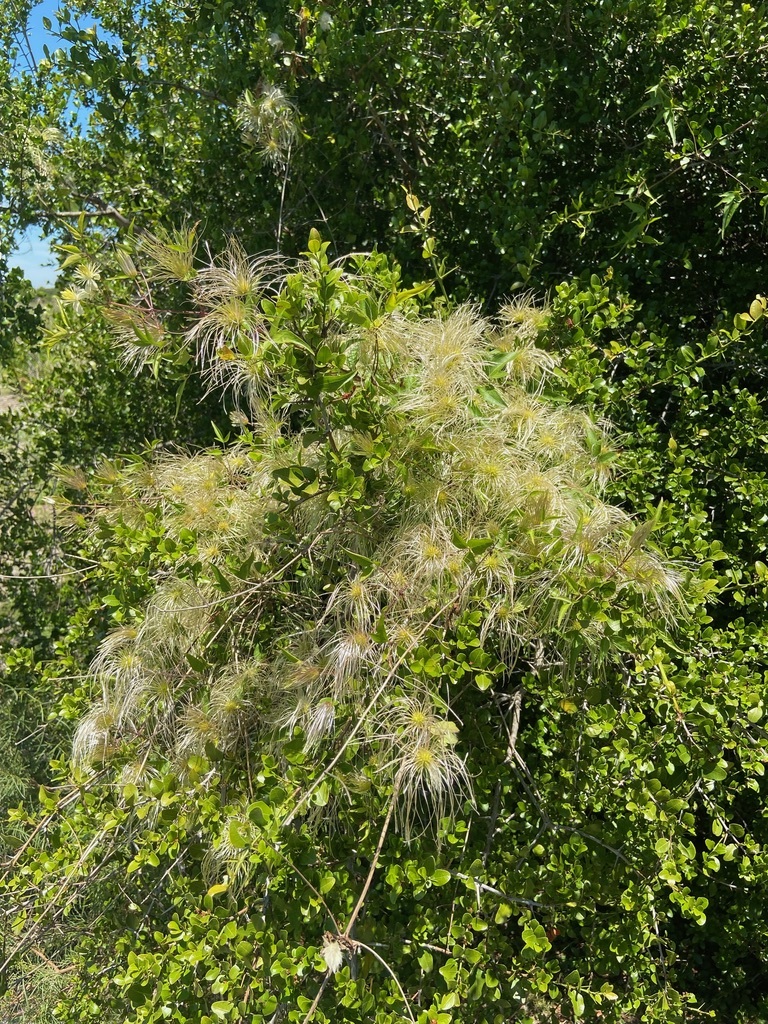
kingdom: Plantae
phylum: Tracheophyta
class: Magnoliopsida
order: Ranunculales
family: Ranunculaceae
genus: Clematis
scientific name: Clematis montevidensis
